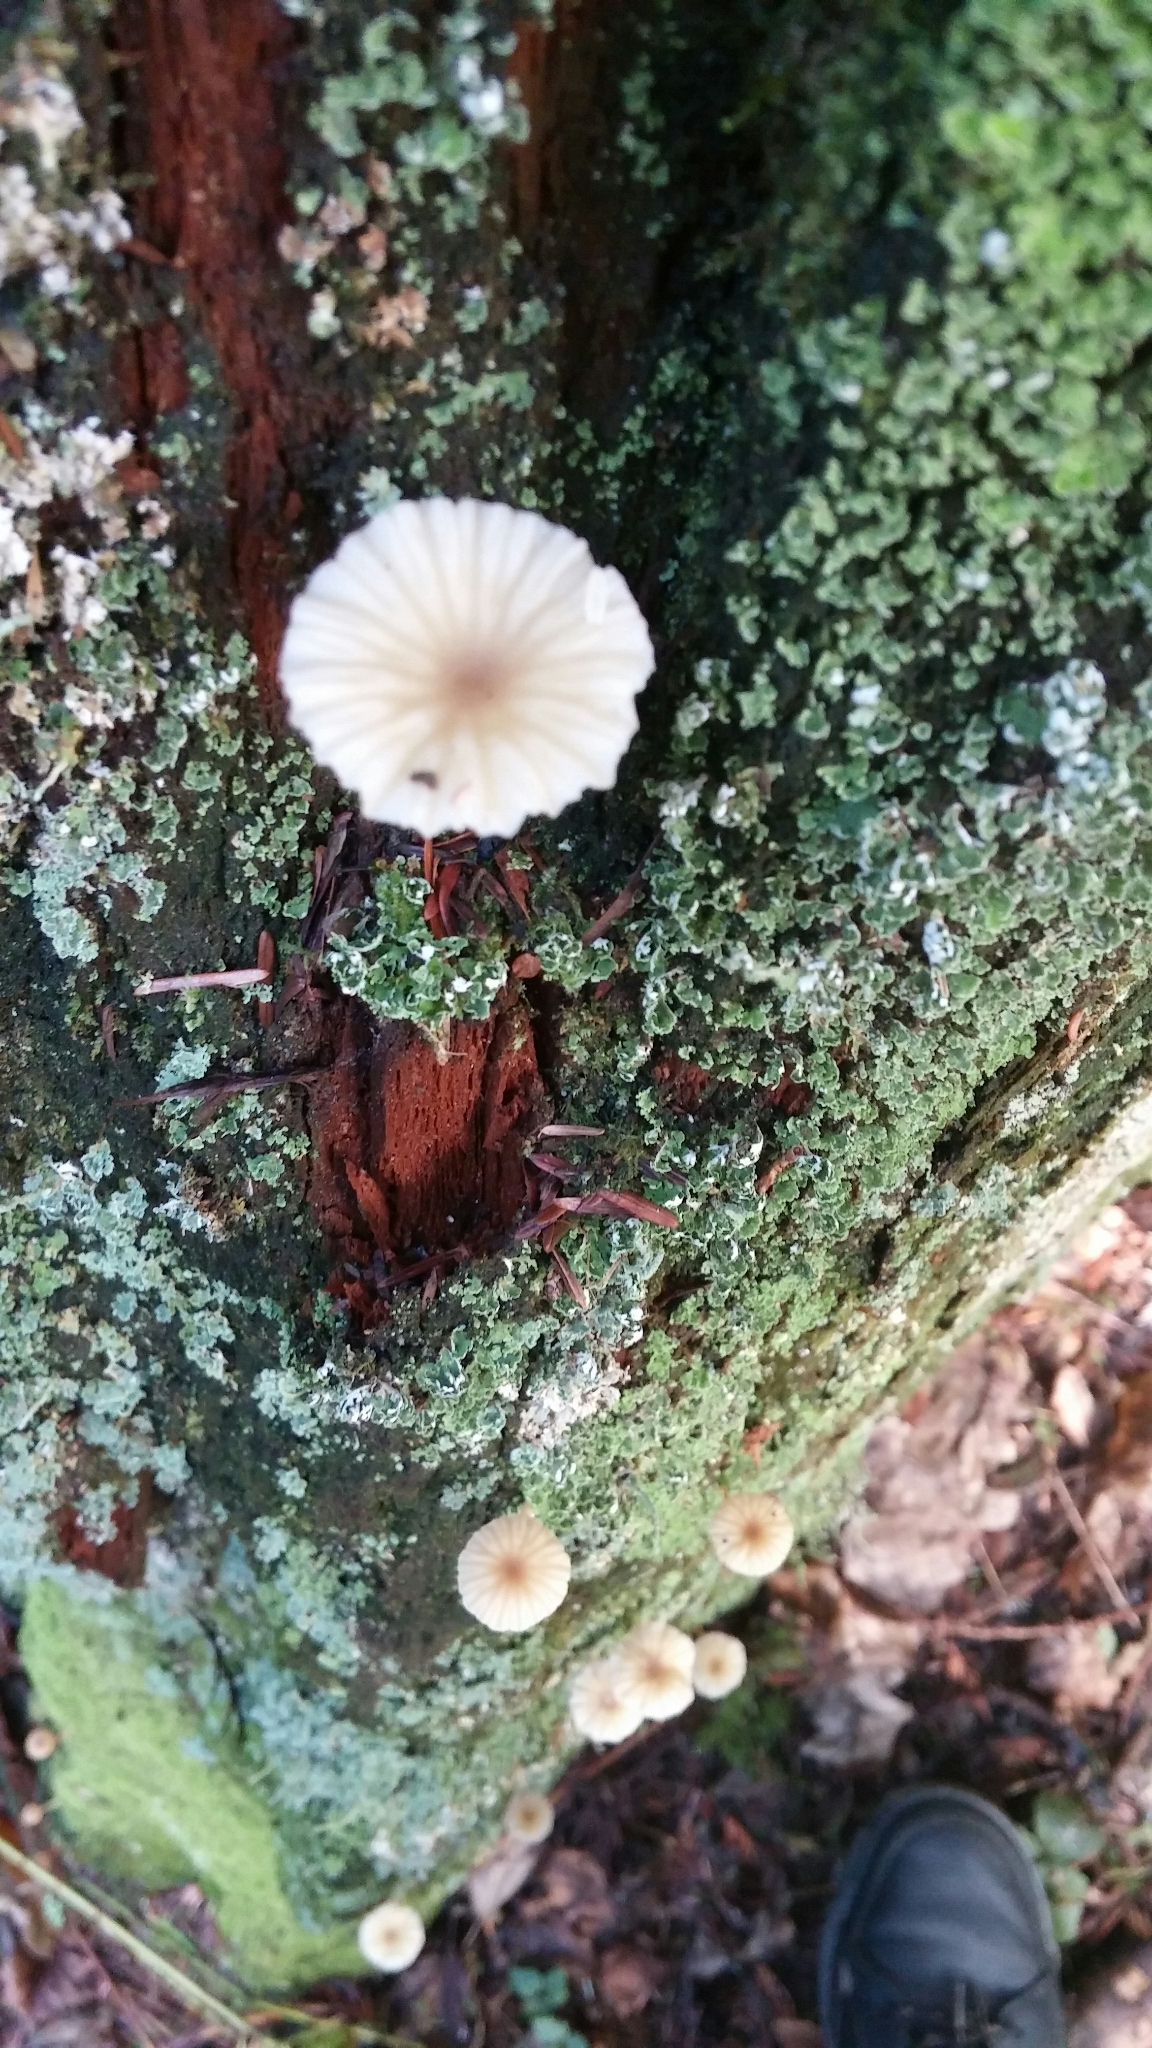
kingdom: Fungi
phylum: Basidiomycota
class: Agaricomycetes
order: Agaricales
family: Hygrophoraceae
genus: Lichenomphalia
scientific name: Lichenomphalia
